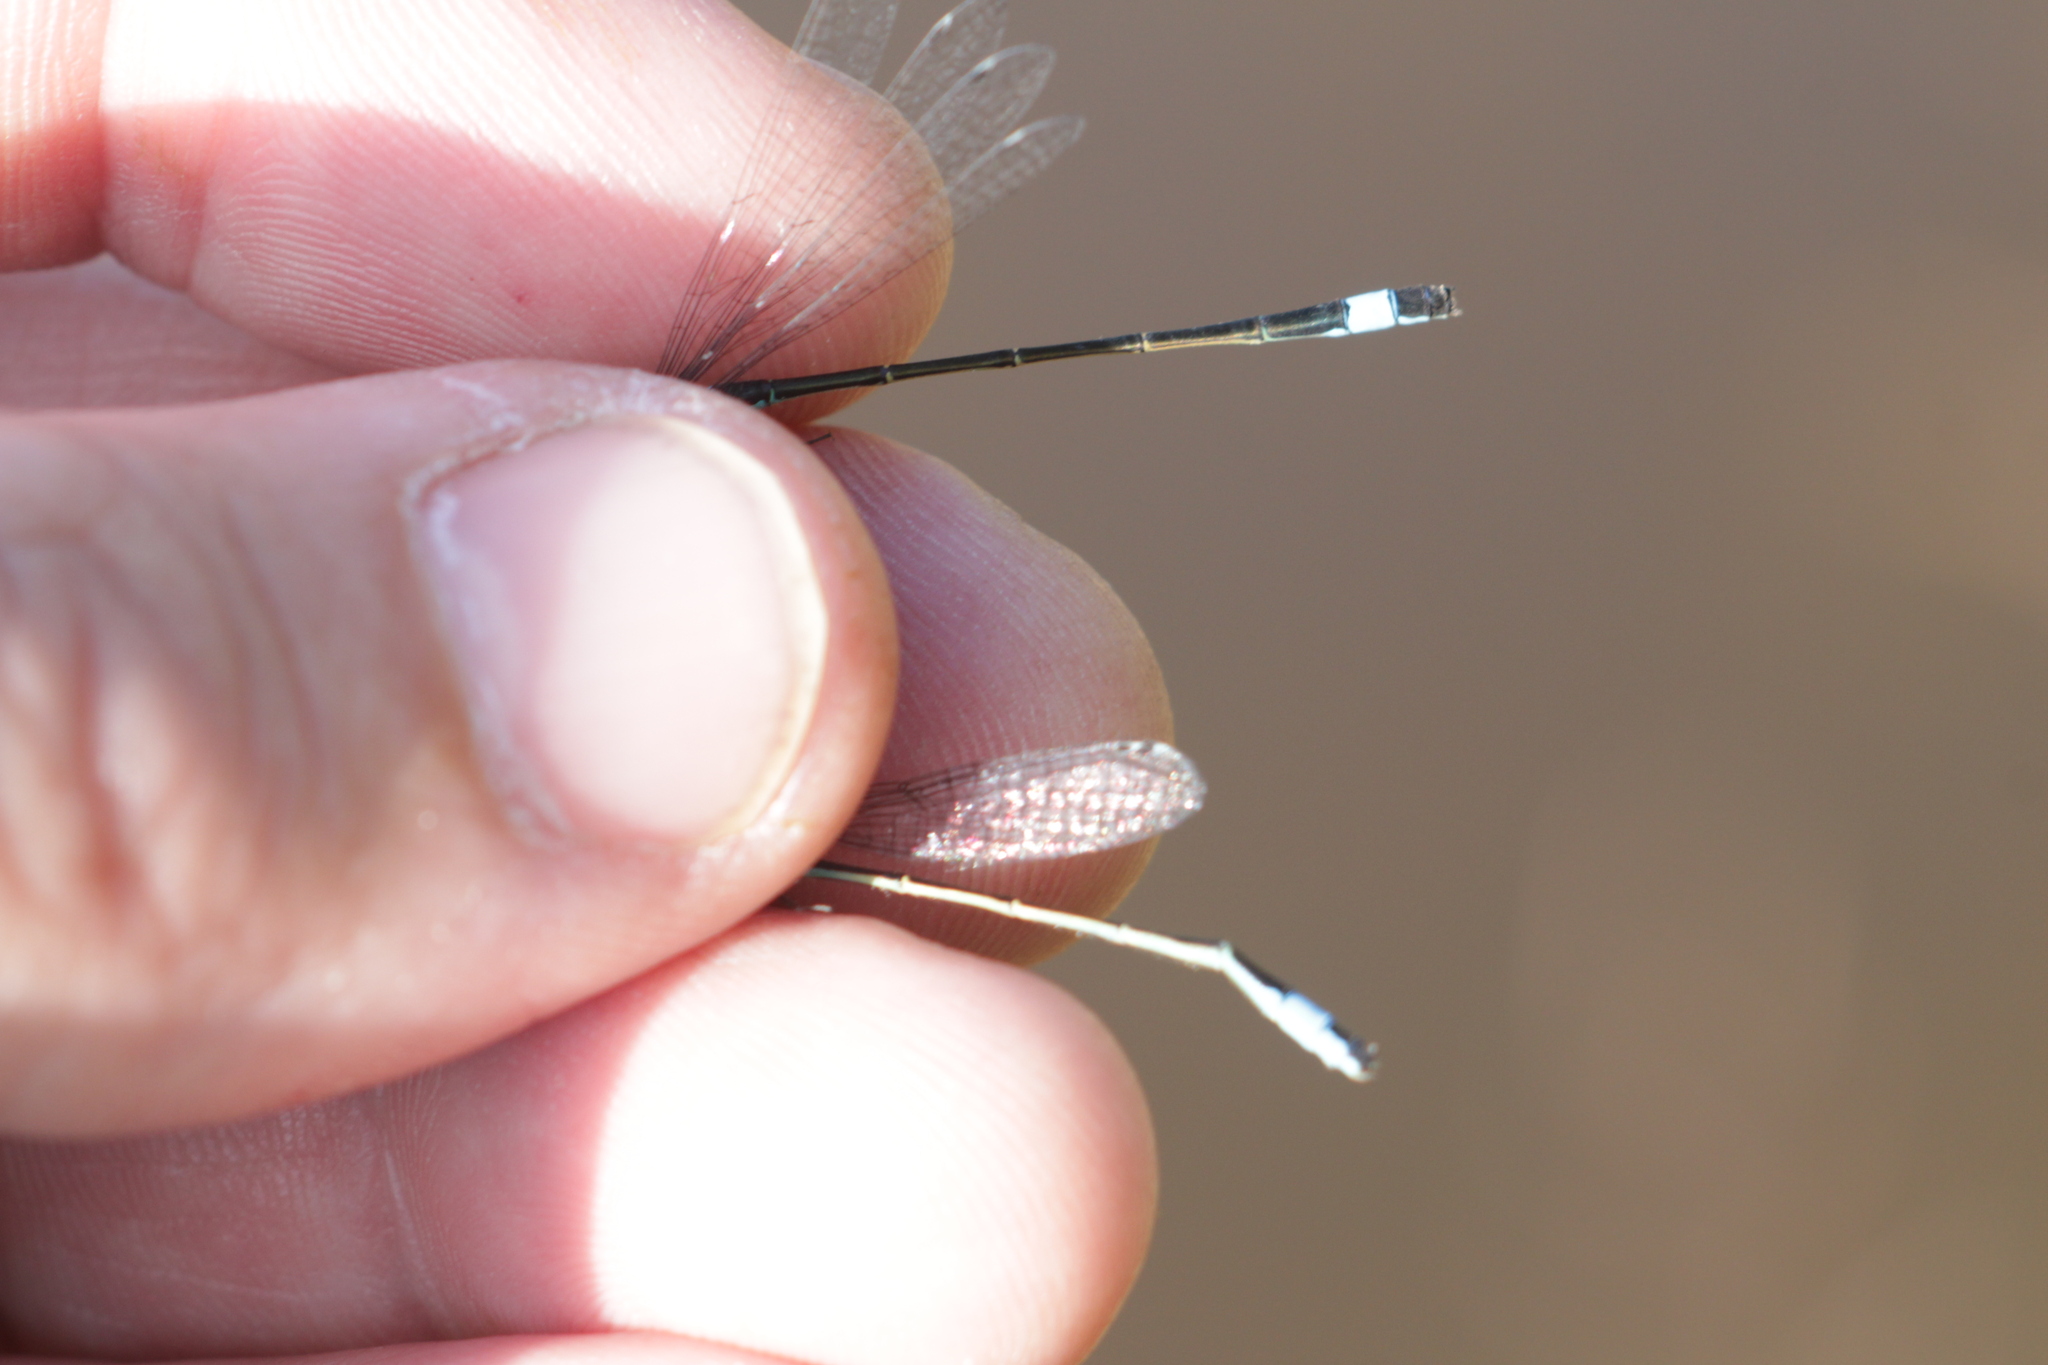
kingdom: Animalia
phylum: Arthropoda
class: Insecta
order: Odonata
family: Coenagrionidae
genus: Ischnura
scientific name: Ischnura elegans
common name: Blue-tailed damselfly
